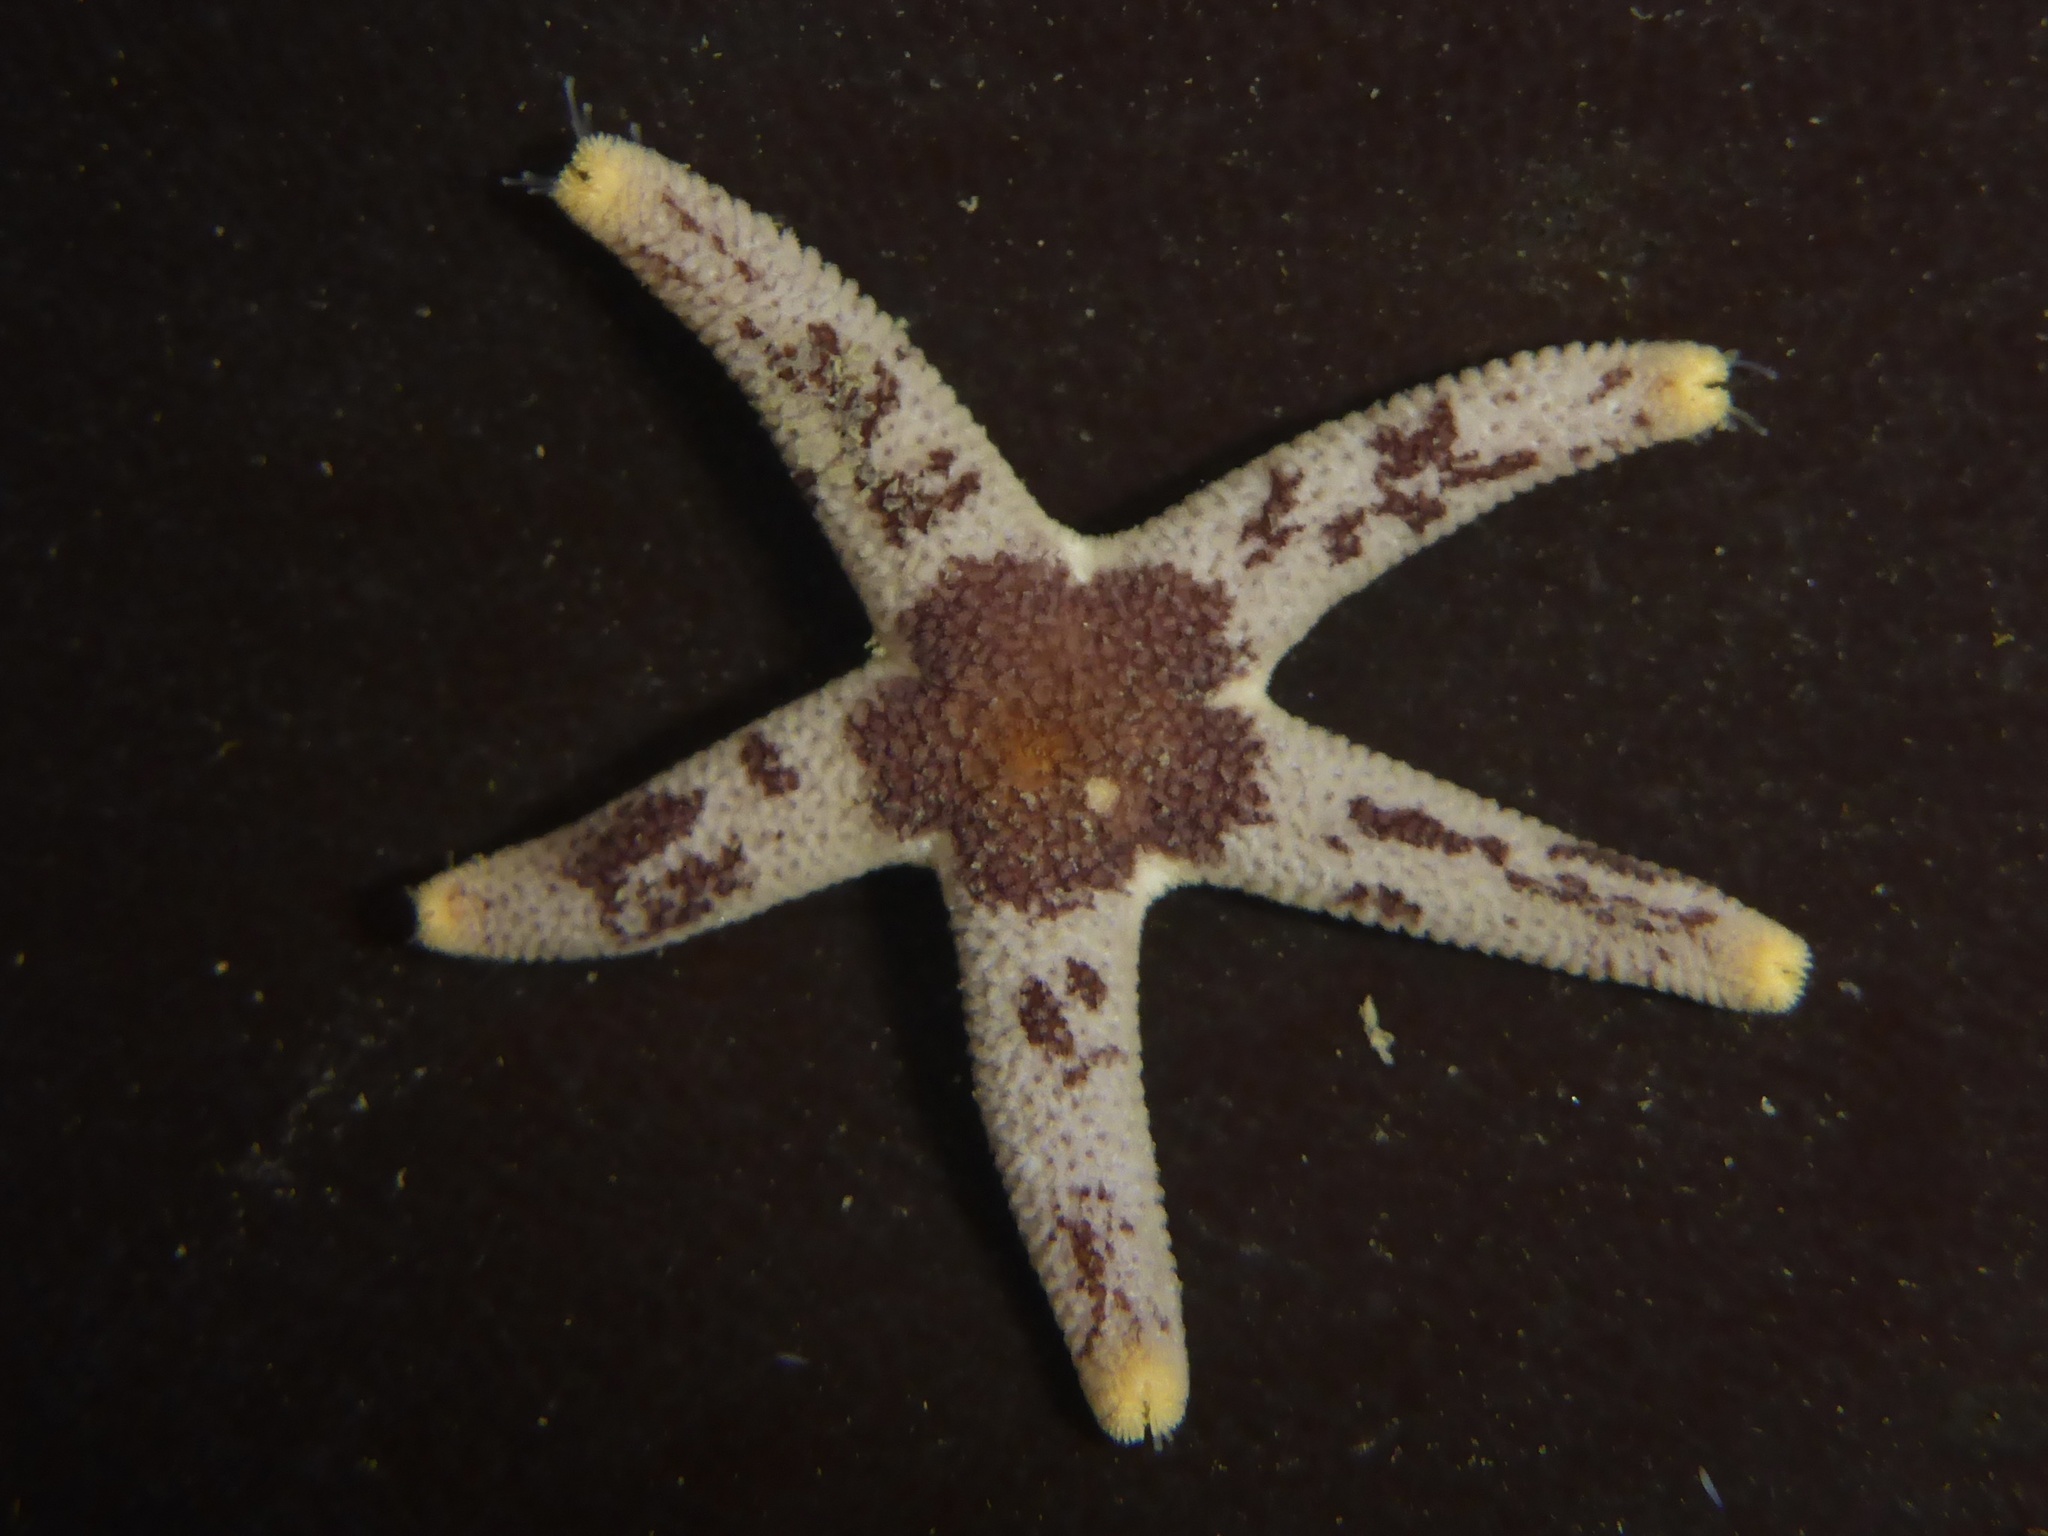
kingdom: Animalia
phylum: Echinodermata
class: Asteroidea
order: Spinulosida
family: Echinasteridae
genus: Henricia
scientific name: Henricia pumila
